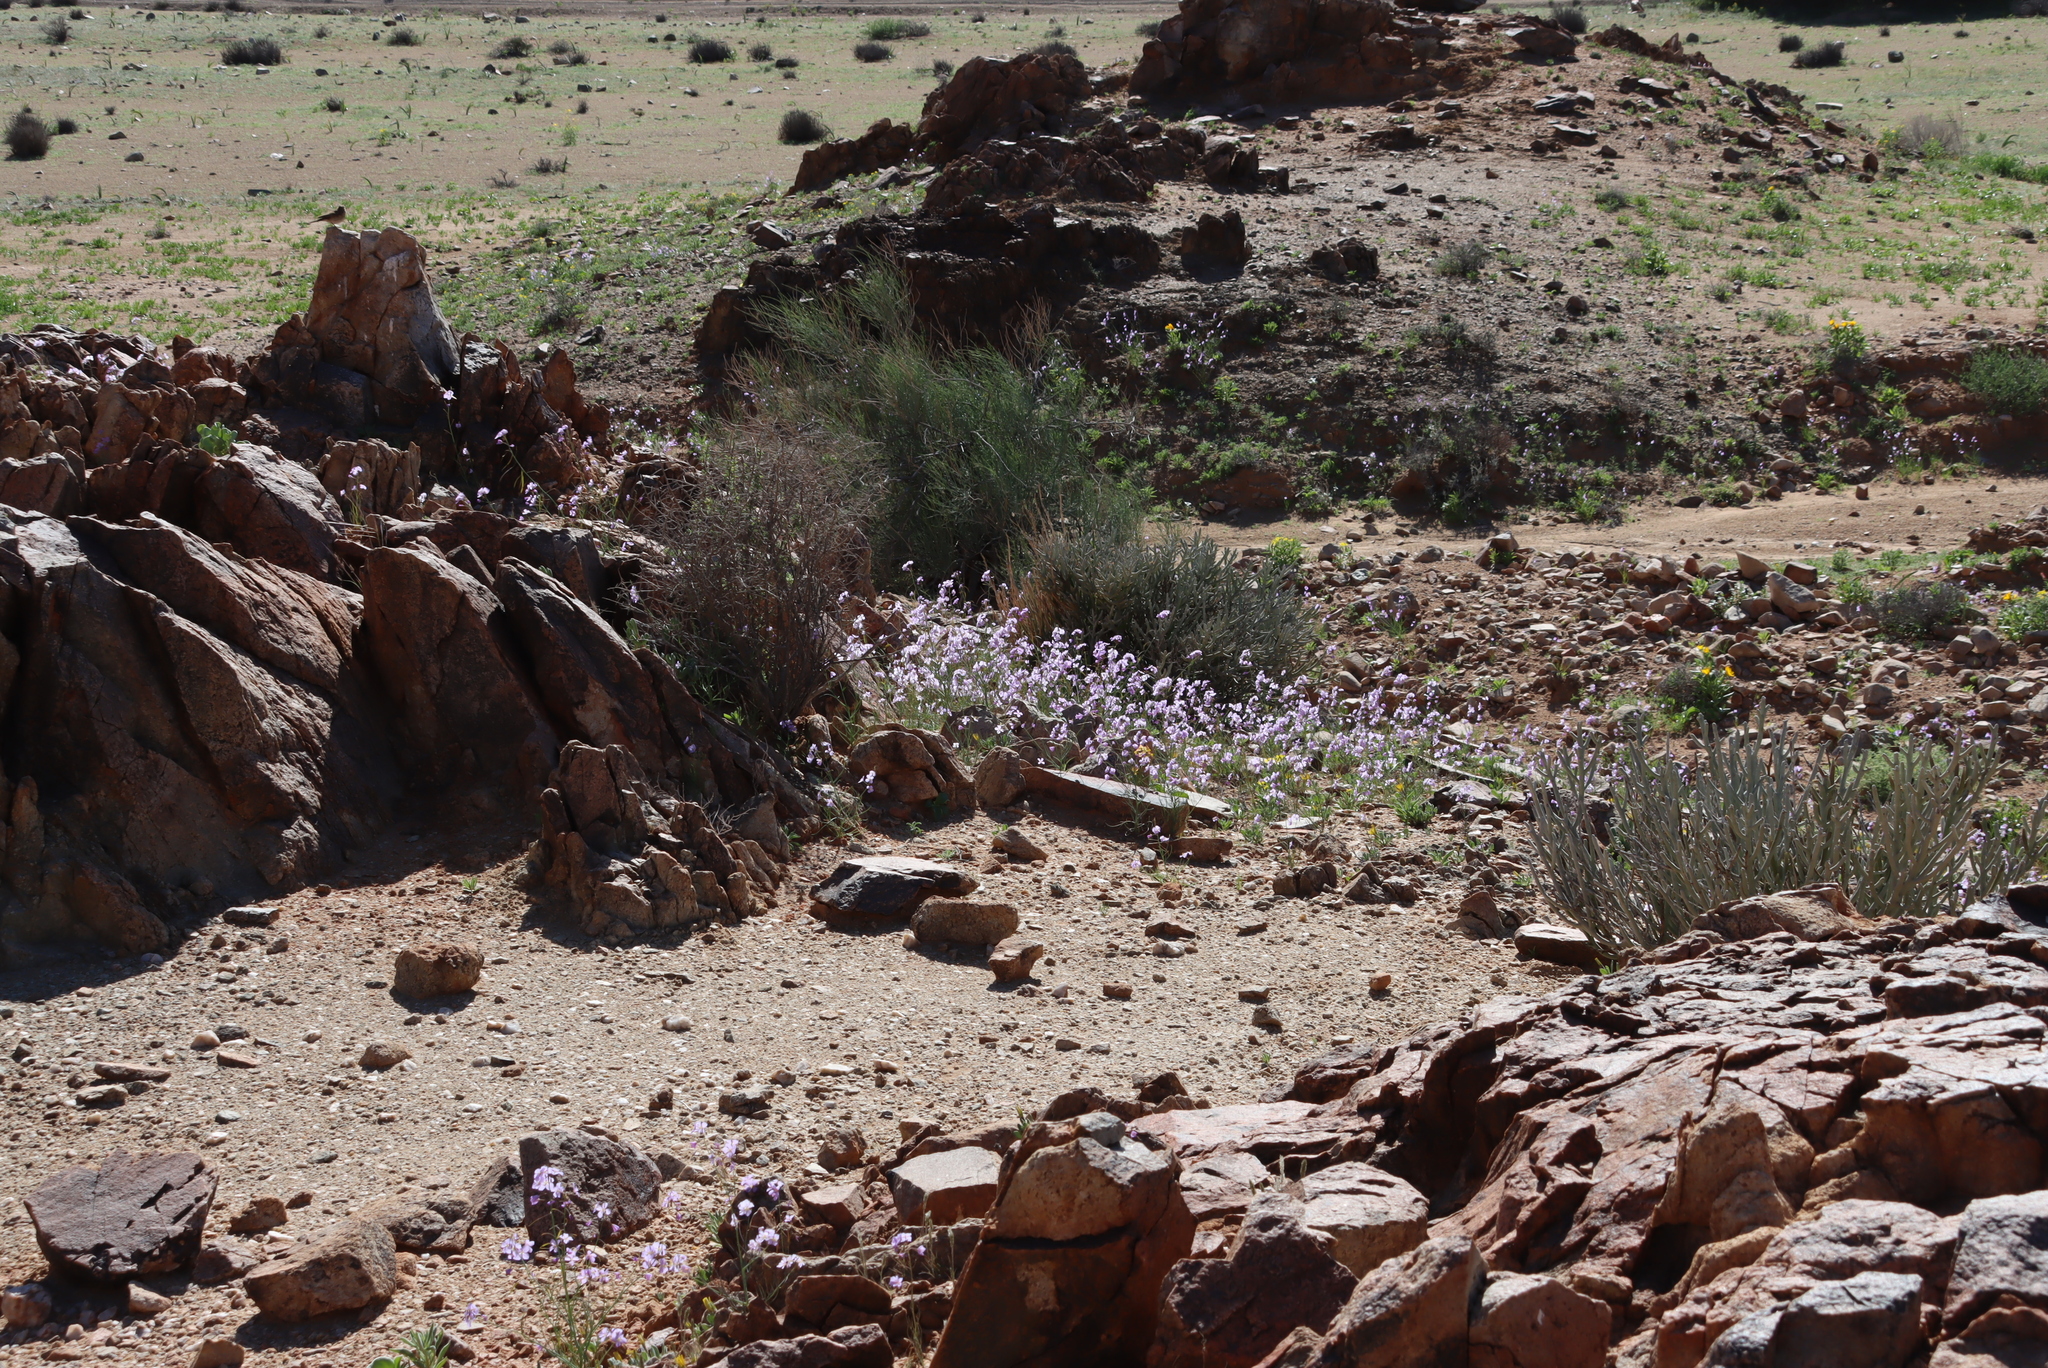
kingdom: Plantae
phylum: Tracheophyta
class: Magnoliopsida
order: Brassicales
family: Brassicaceae
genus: Heliophila
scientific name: Heliophila trifurca
